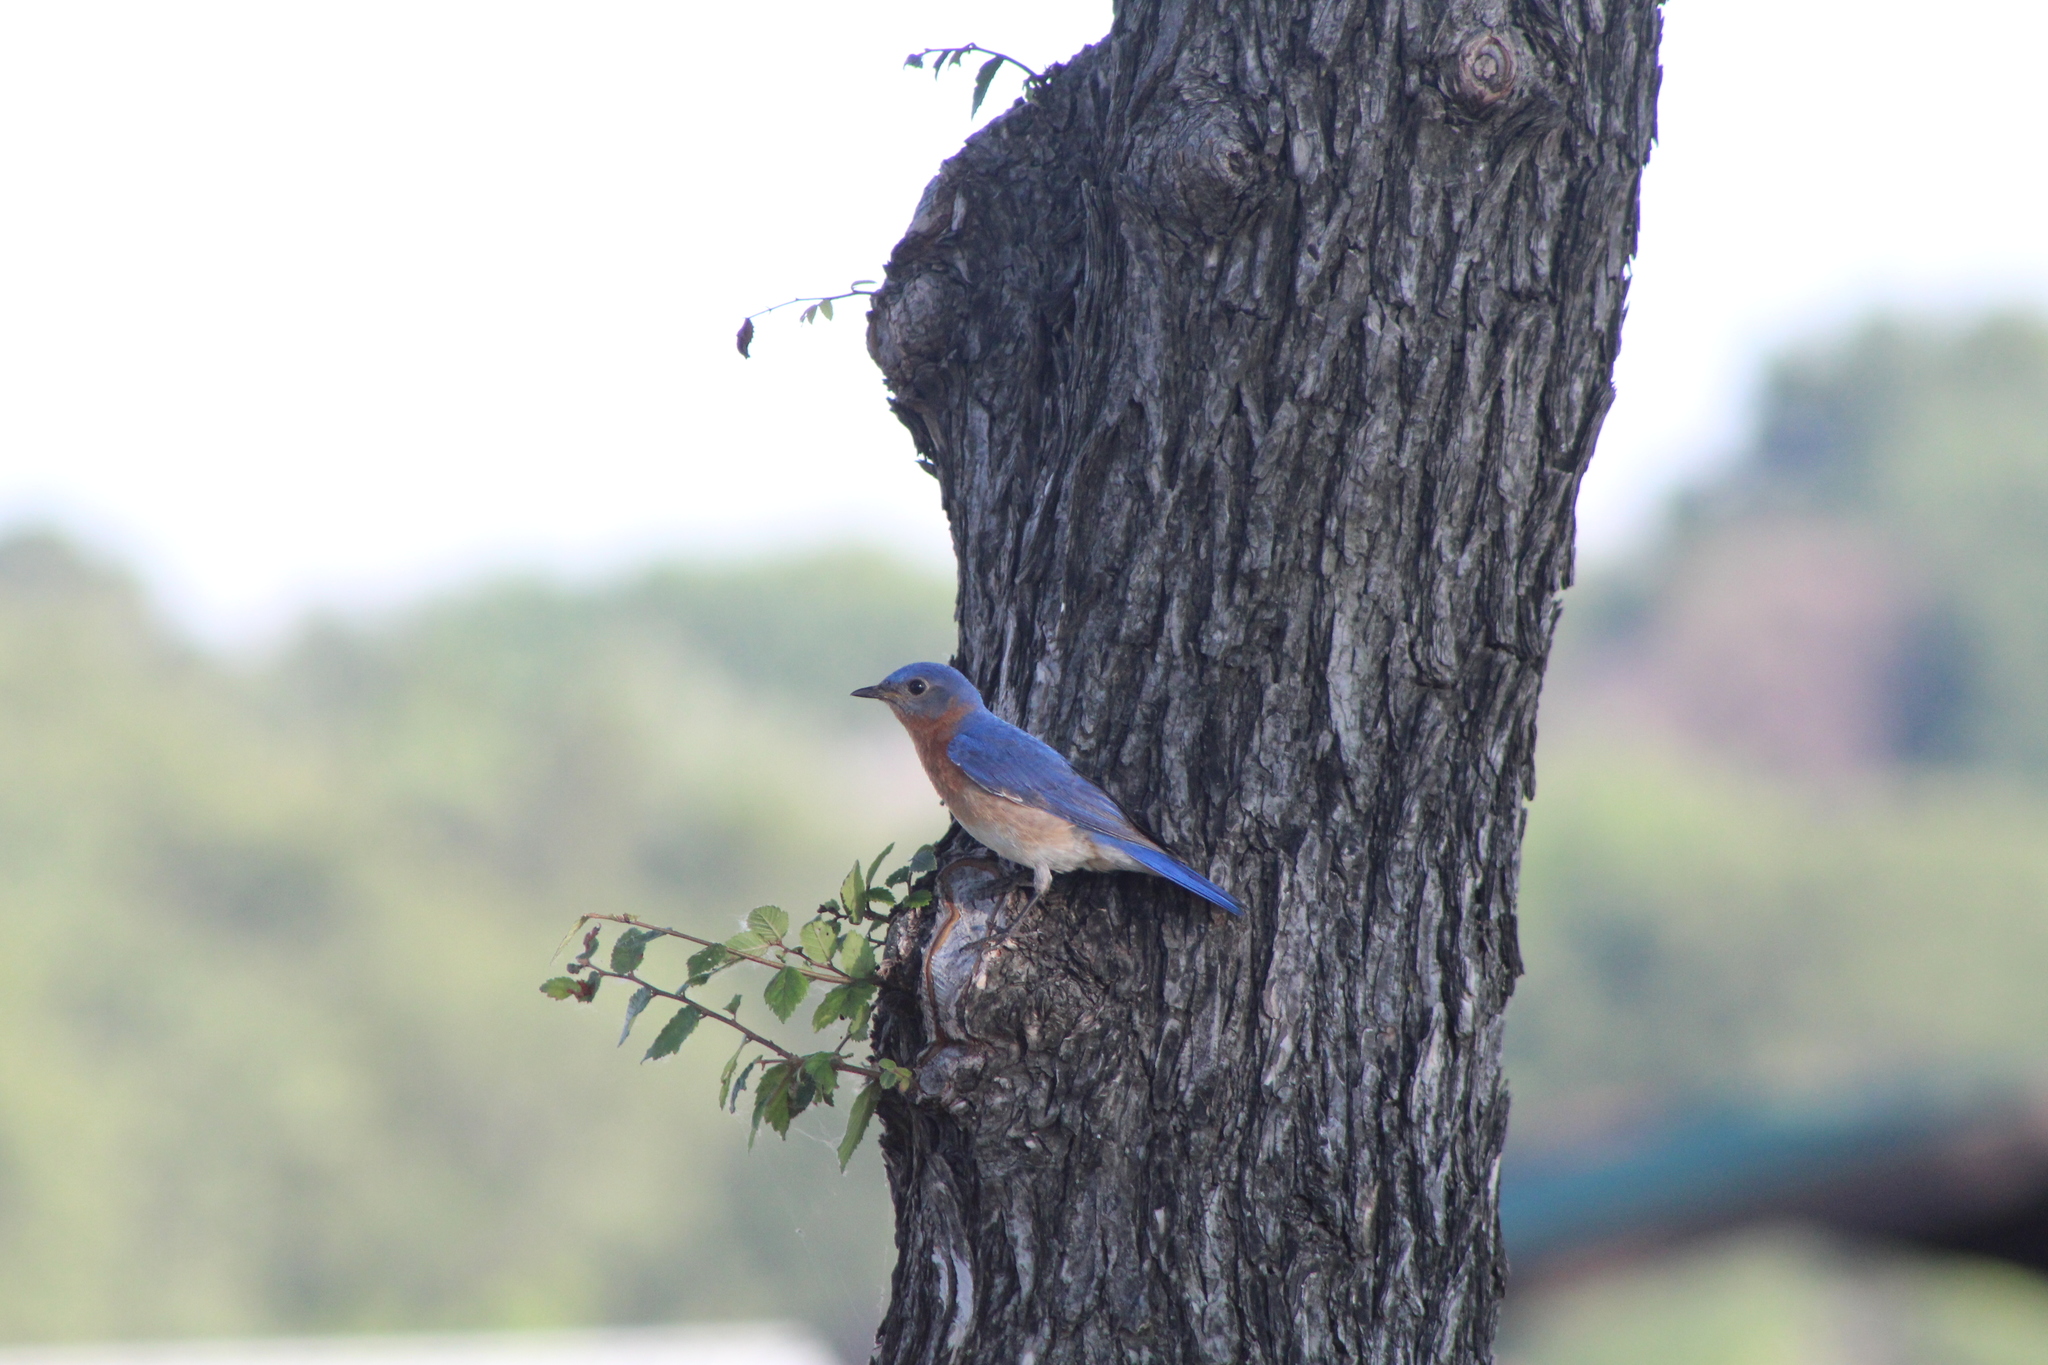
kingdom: Animalia
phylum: Chordata
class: Aves
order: Passeriformes
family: Turdidae
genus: Sialia
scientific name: Sialia sialis
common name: Eastern bluebird
